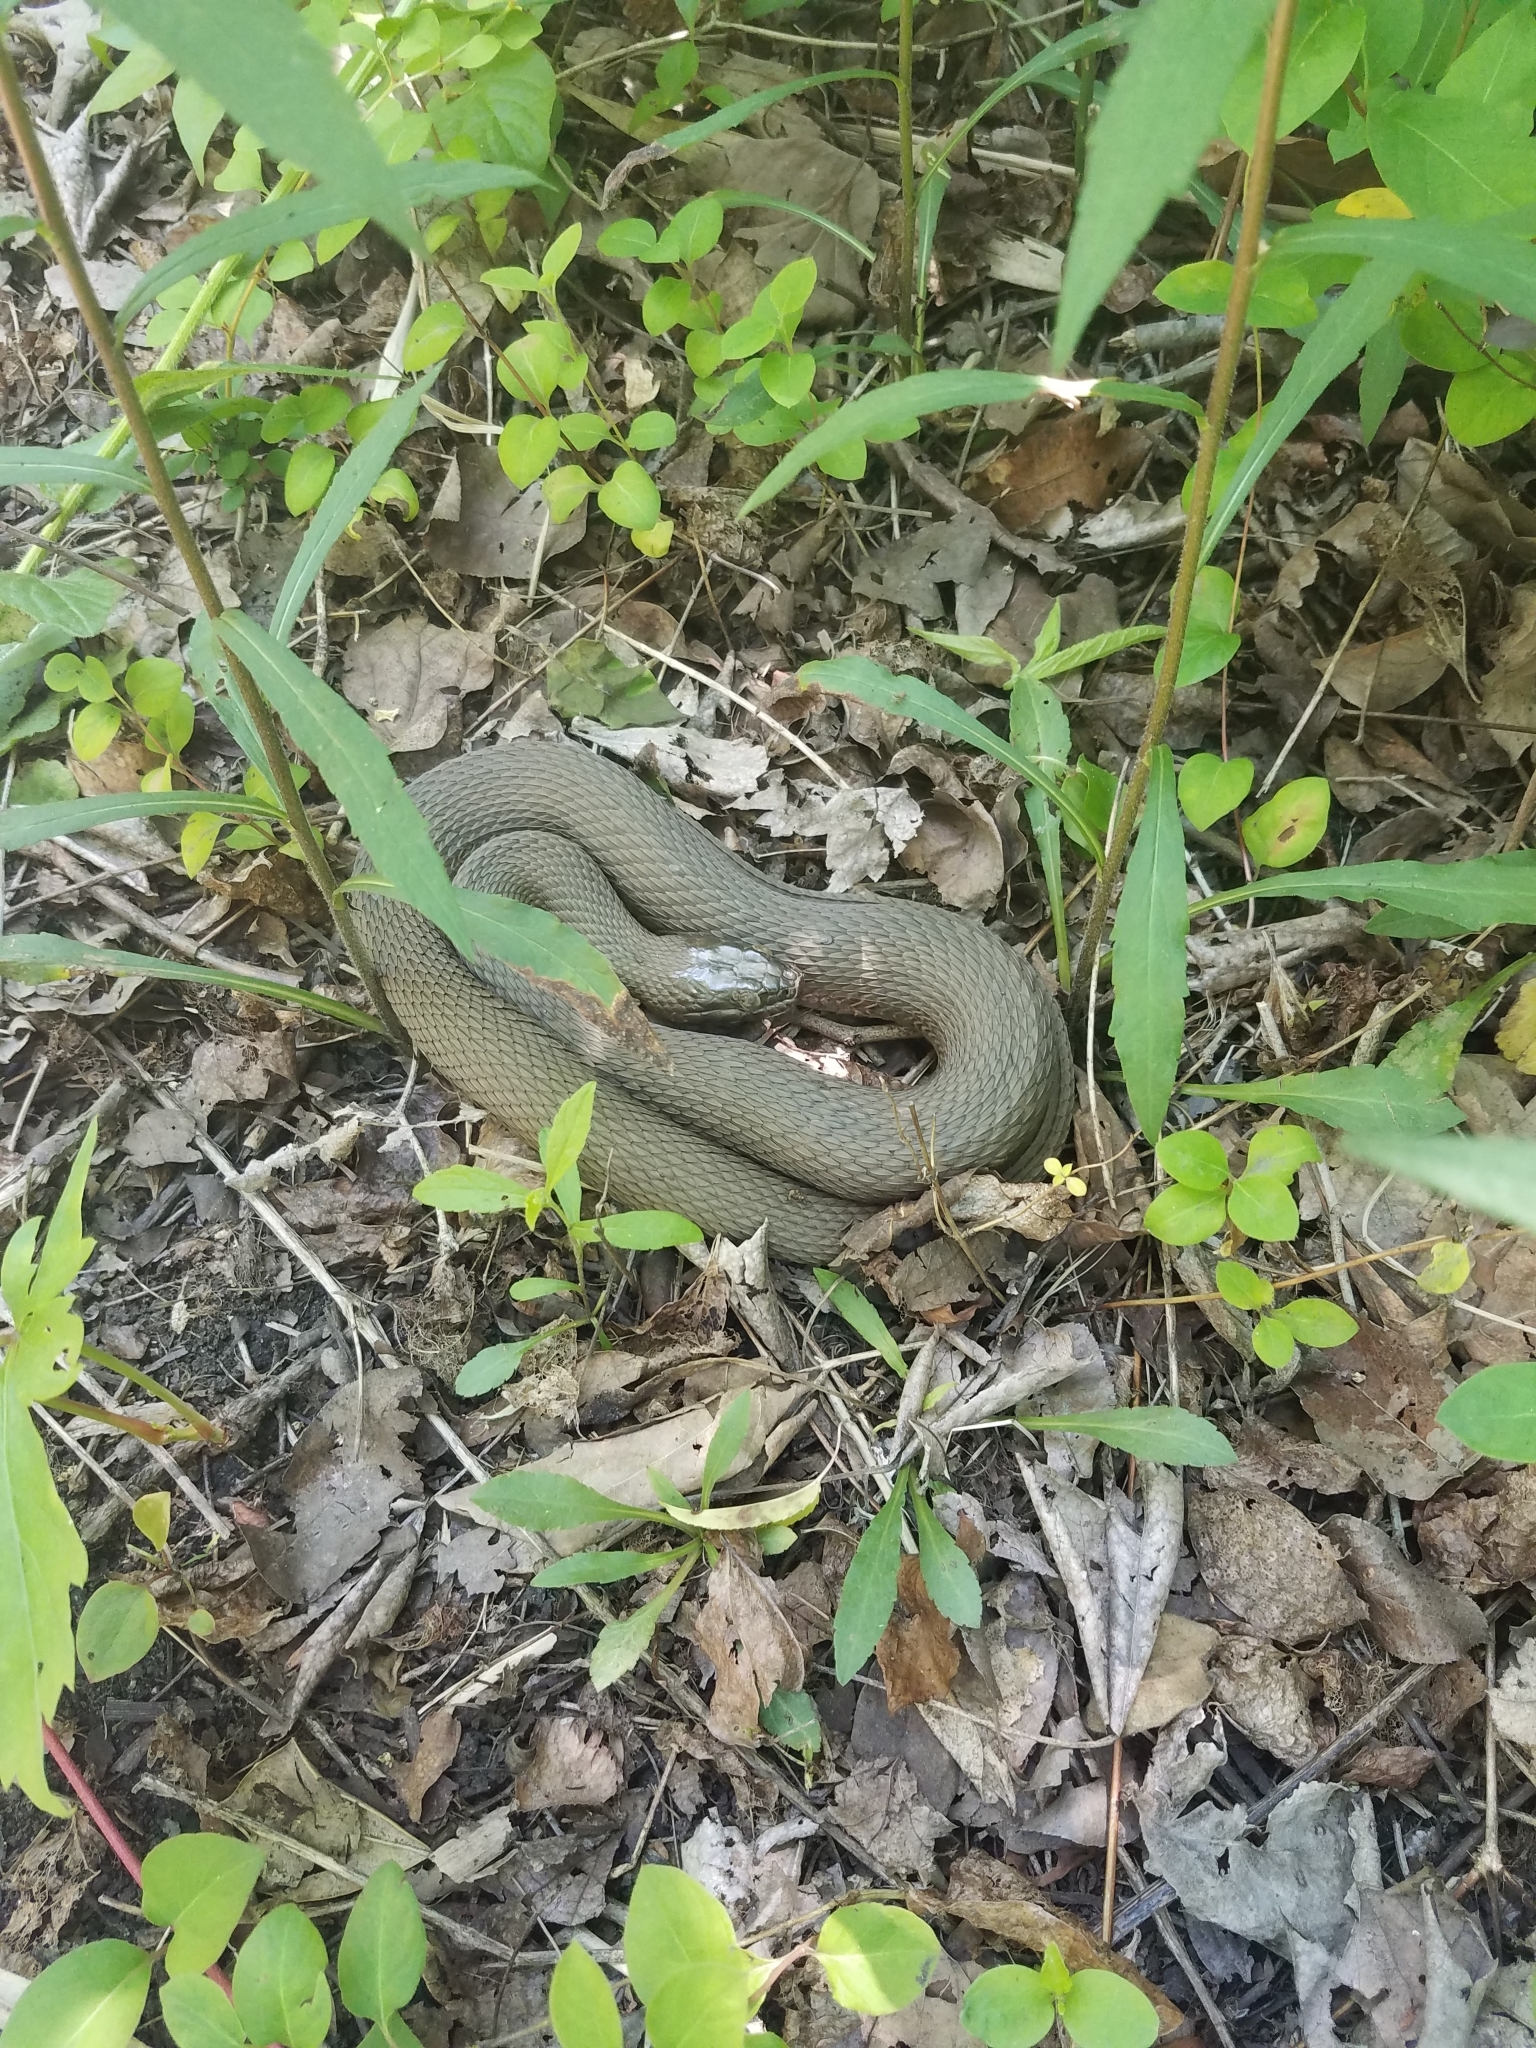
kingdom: Animalia
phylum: Chordata
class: Squamata
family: Colubridae
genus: Nerodia
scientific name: Nerodia sipedon
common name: Northern water snake
